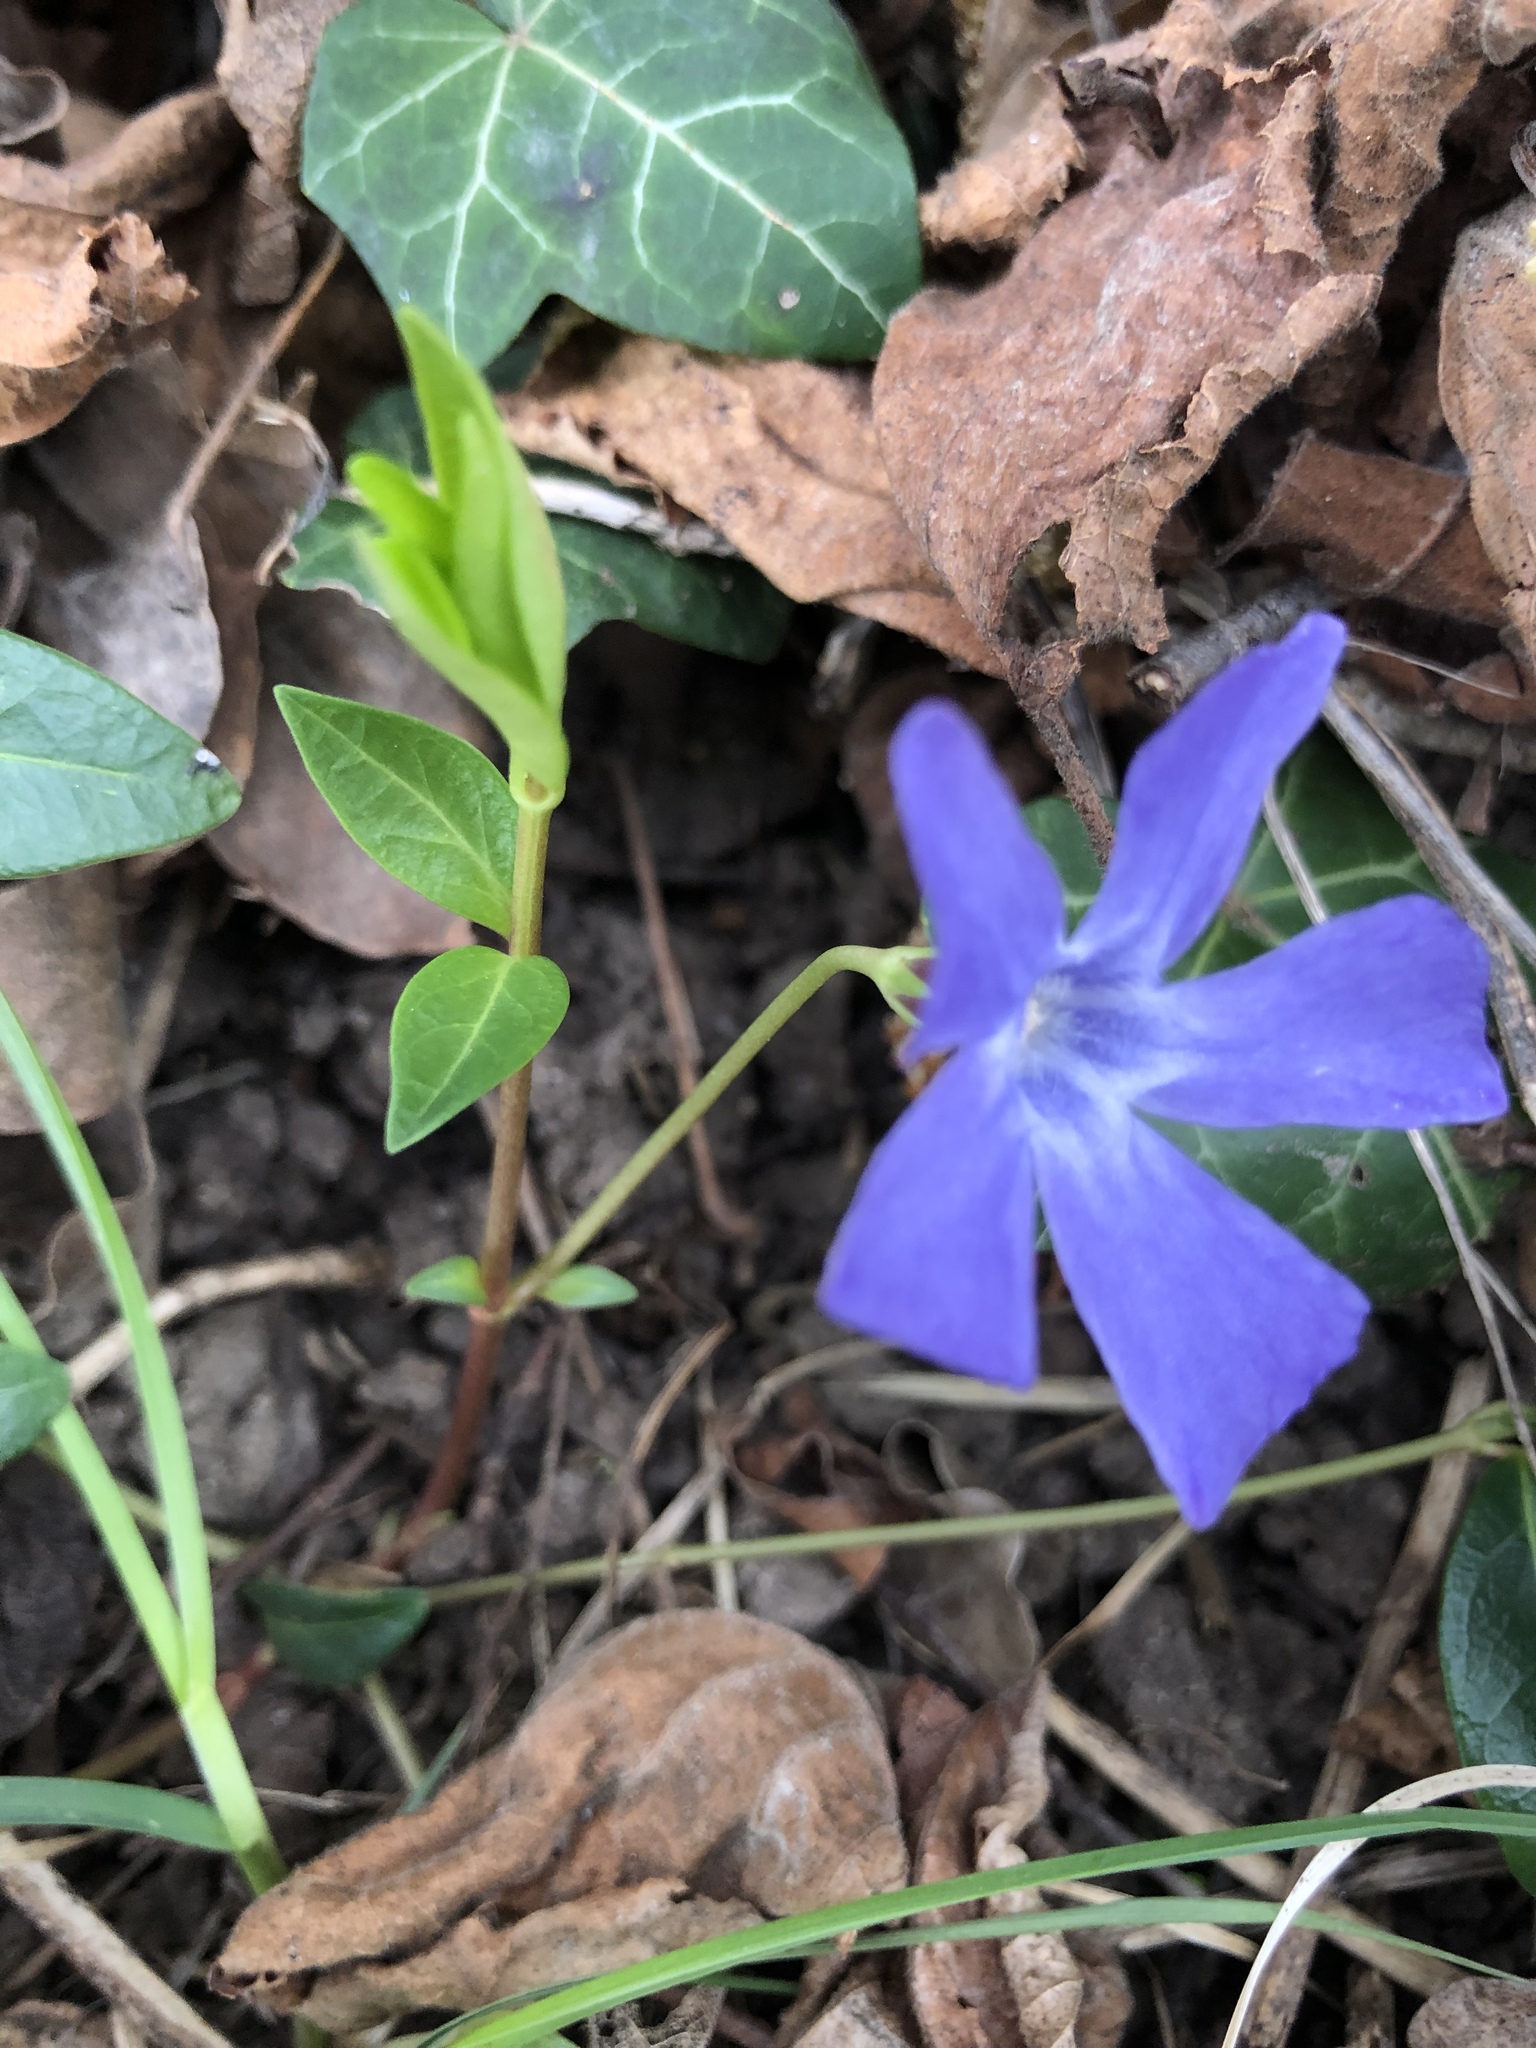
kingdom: Plantae
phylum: Tracheophyta
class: Magnoliopsida
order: Gentianales
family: Apocynaceae
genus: Vinca
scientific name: Vinca minor
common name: Lesser periwinkle
